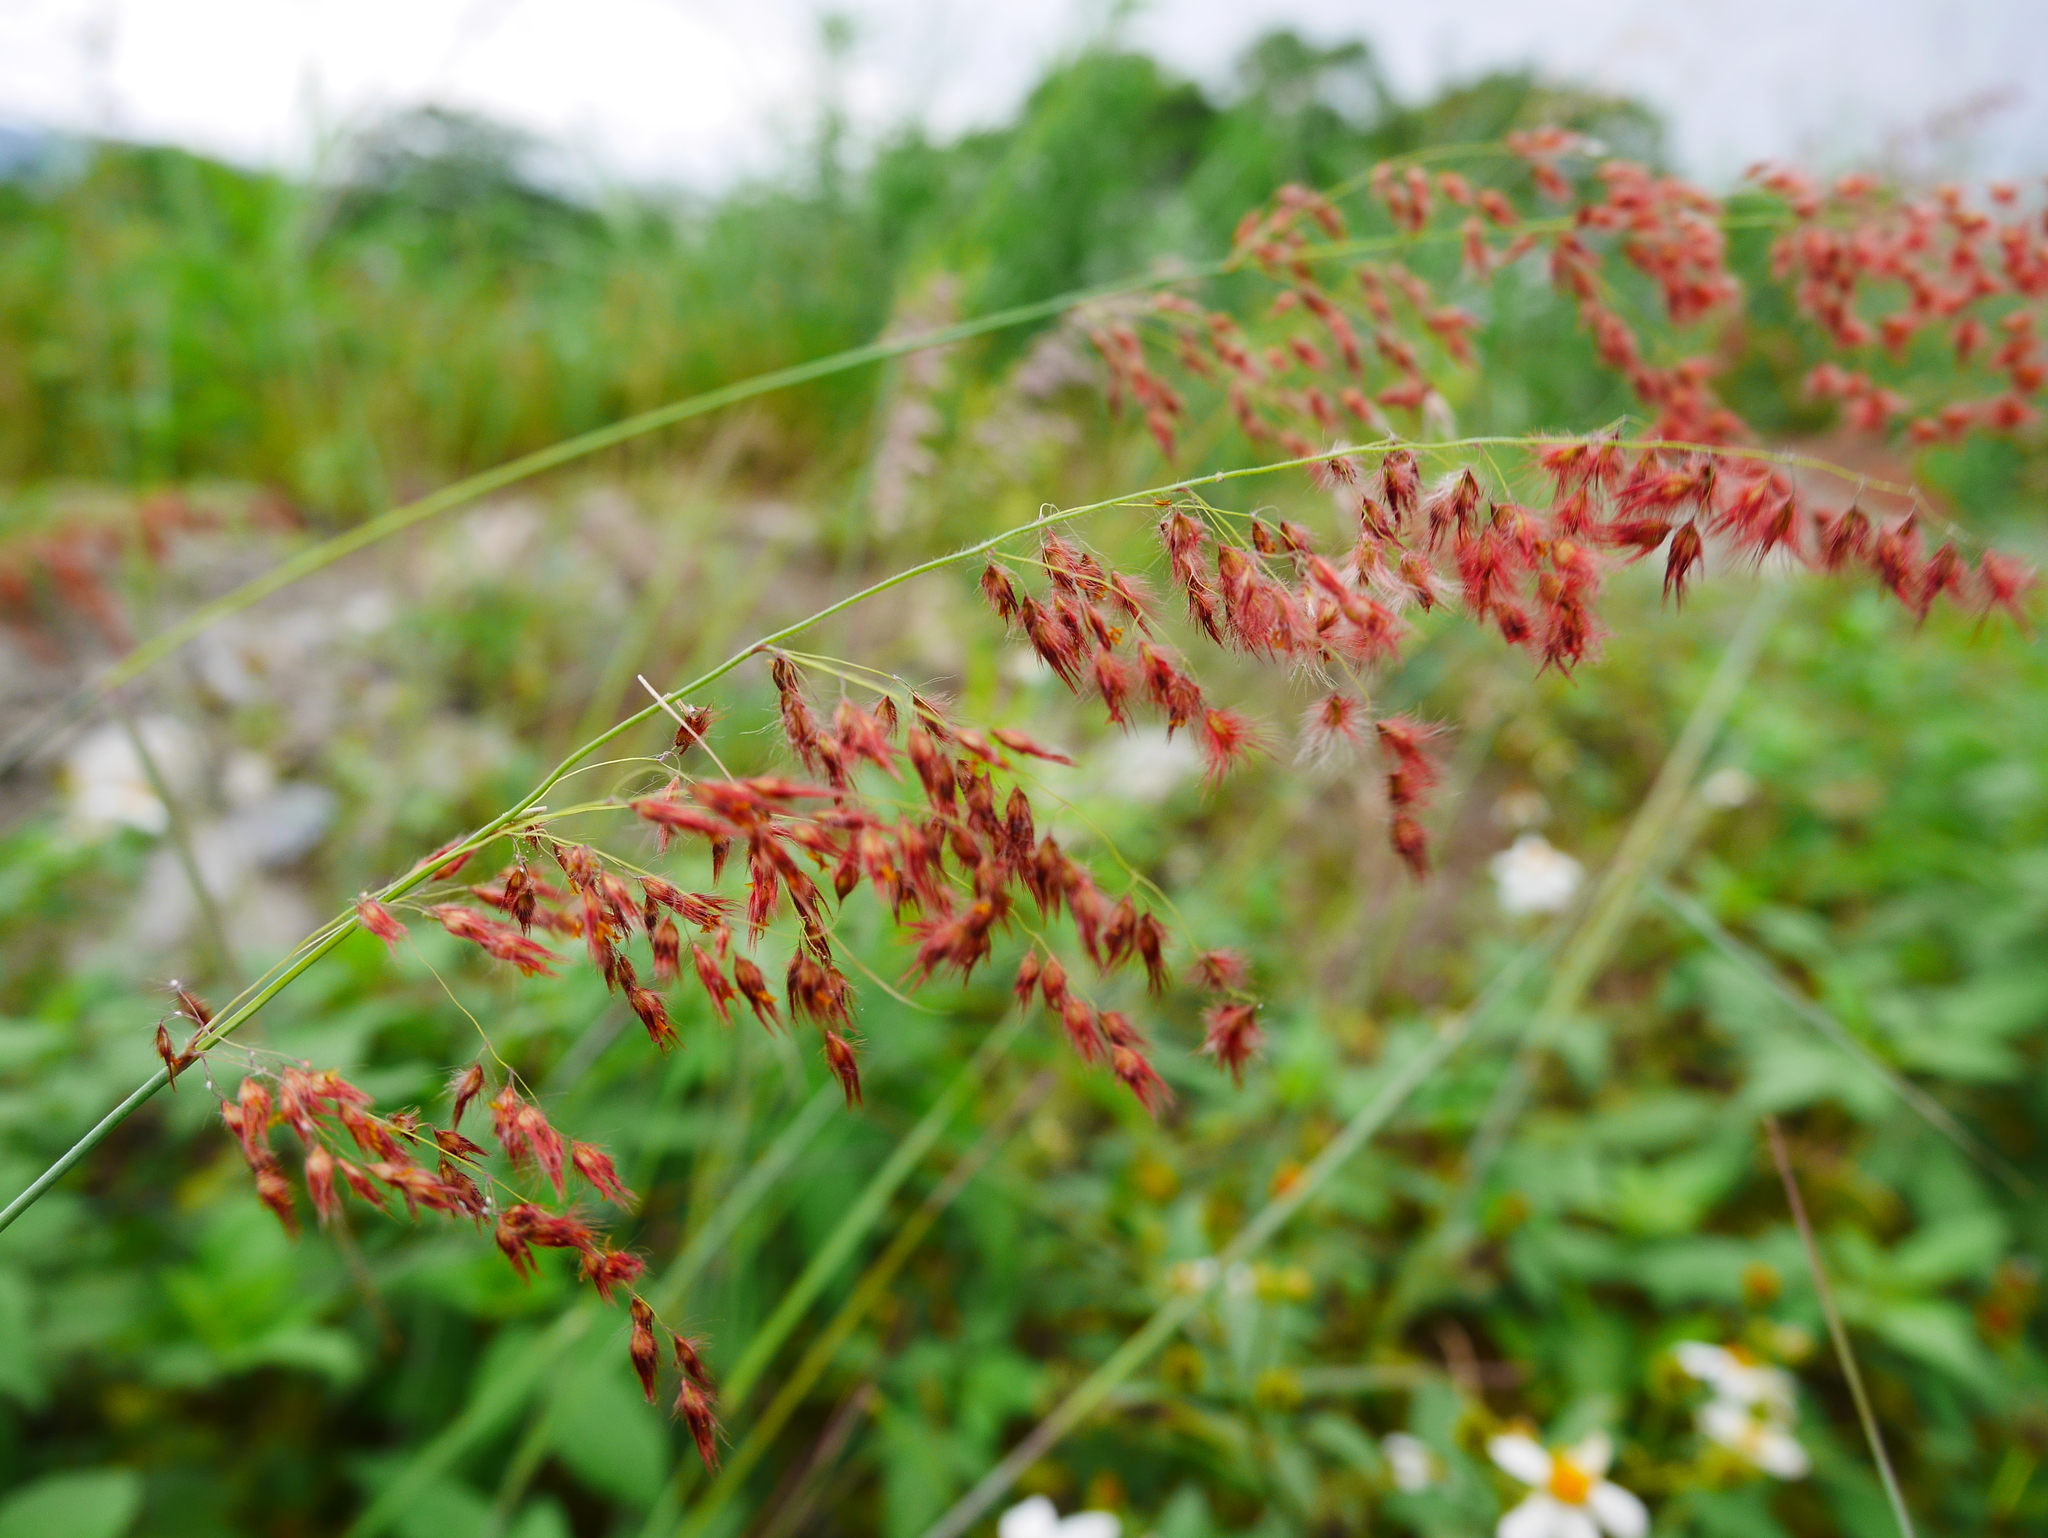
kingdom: Plantae
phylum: Tracheophyta
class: Liliopsida
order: Poales
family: Poaceae
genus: Melinis
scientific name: Melinis repens
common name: Rose natal grass
